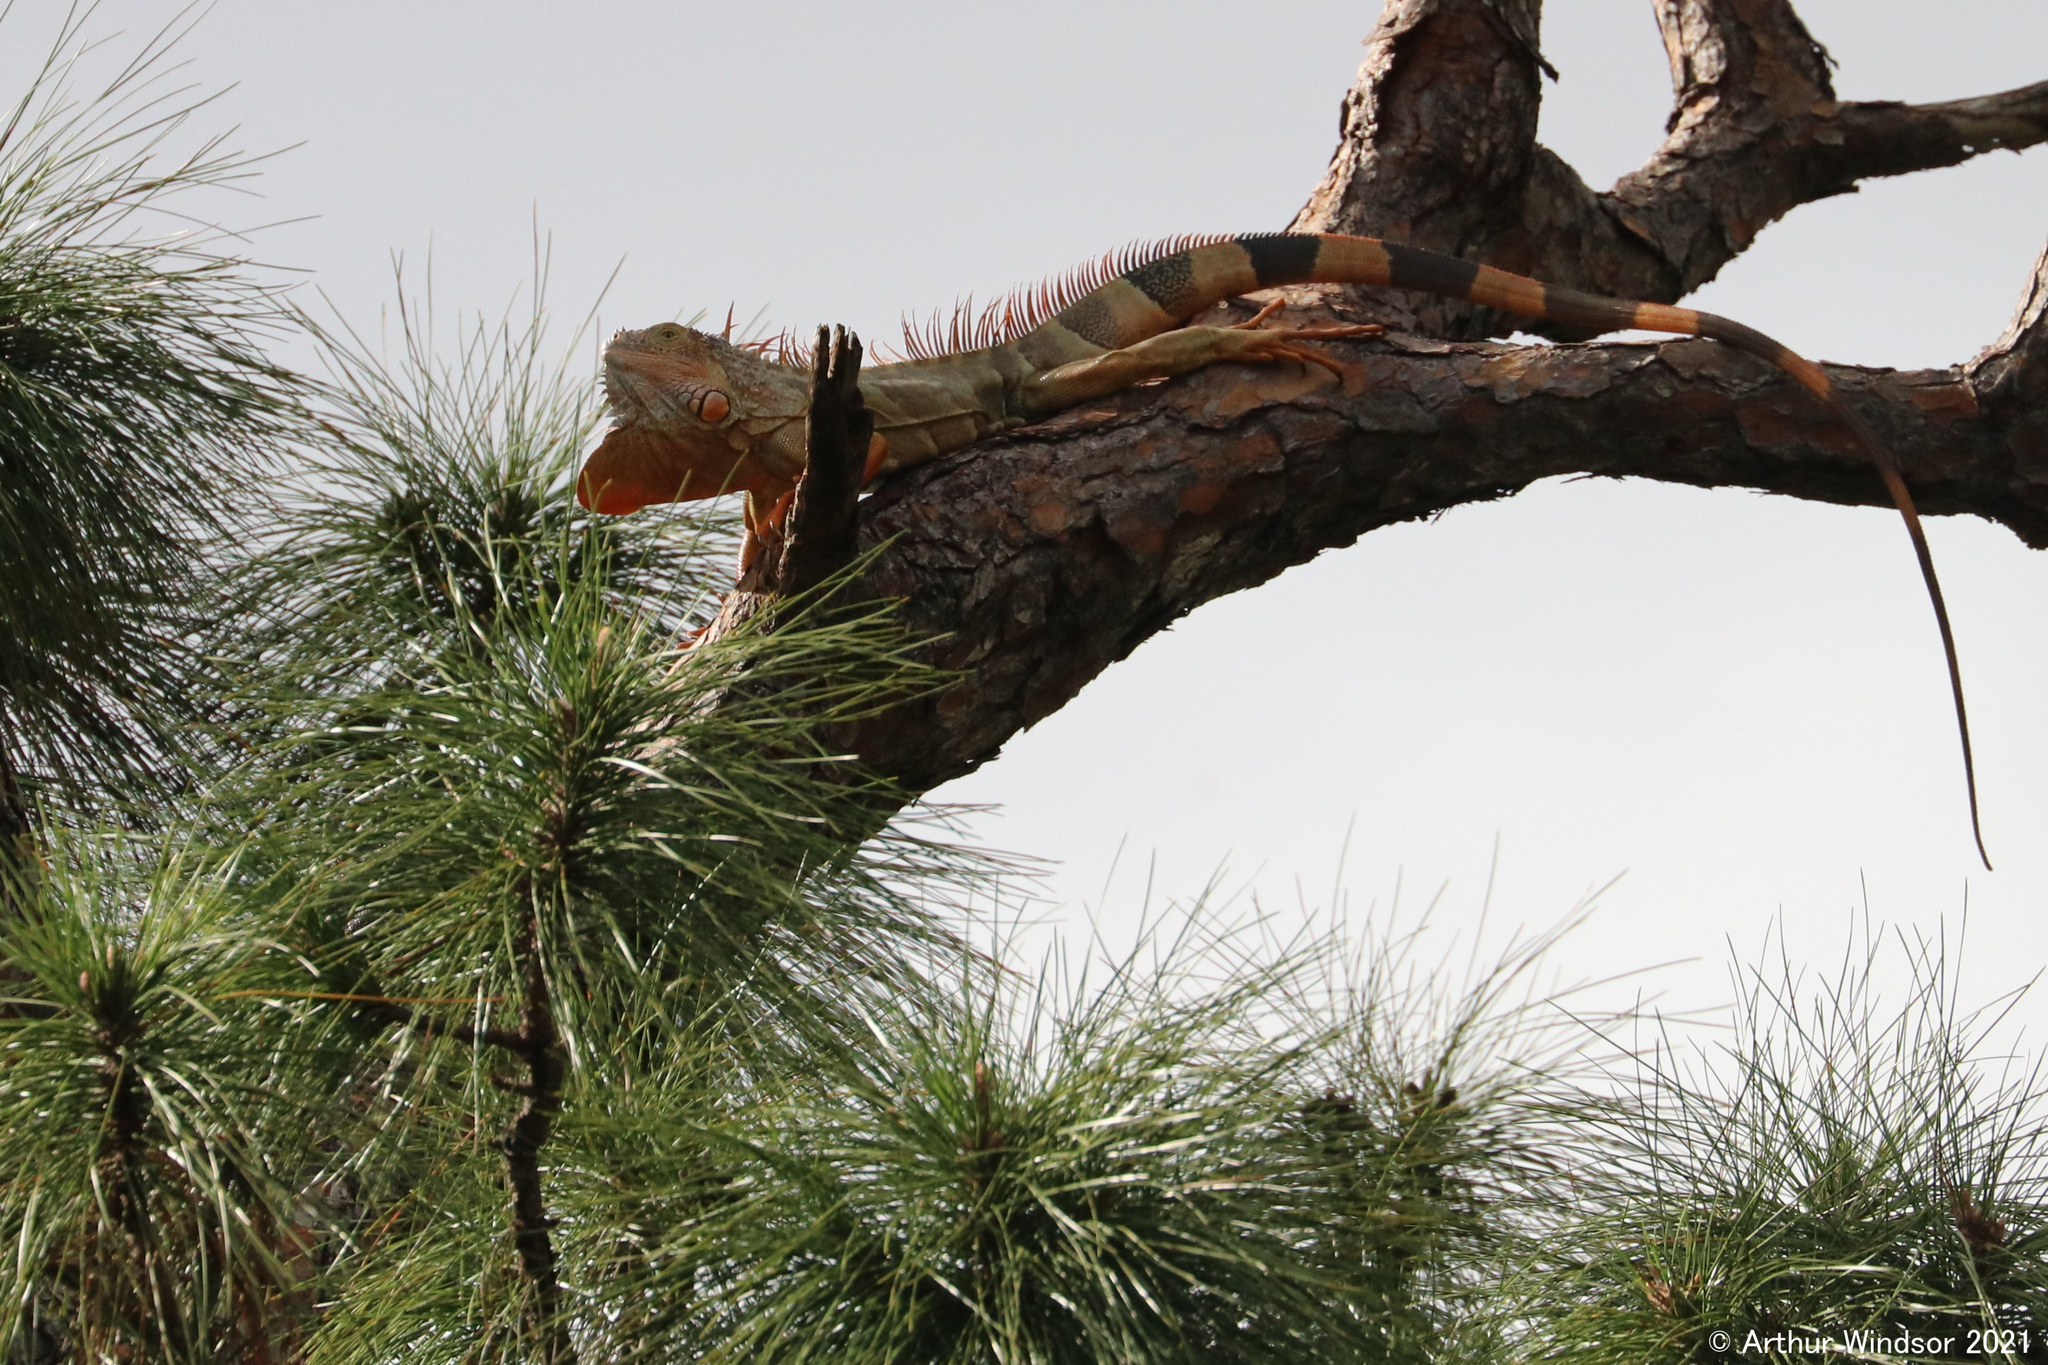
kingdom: Animalia
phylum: Chordata
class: Squamata
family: Iguanidae
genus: Iguana
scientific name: Iguana iguana
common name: Green iguana
